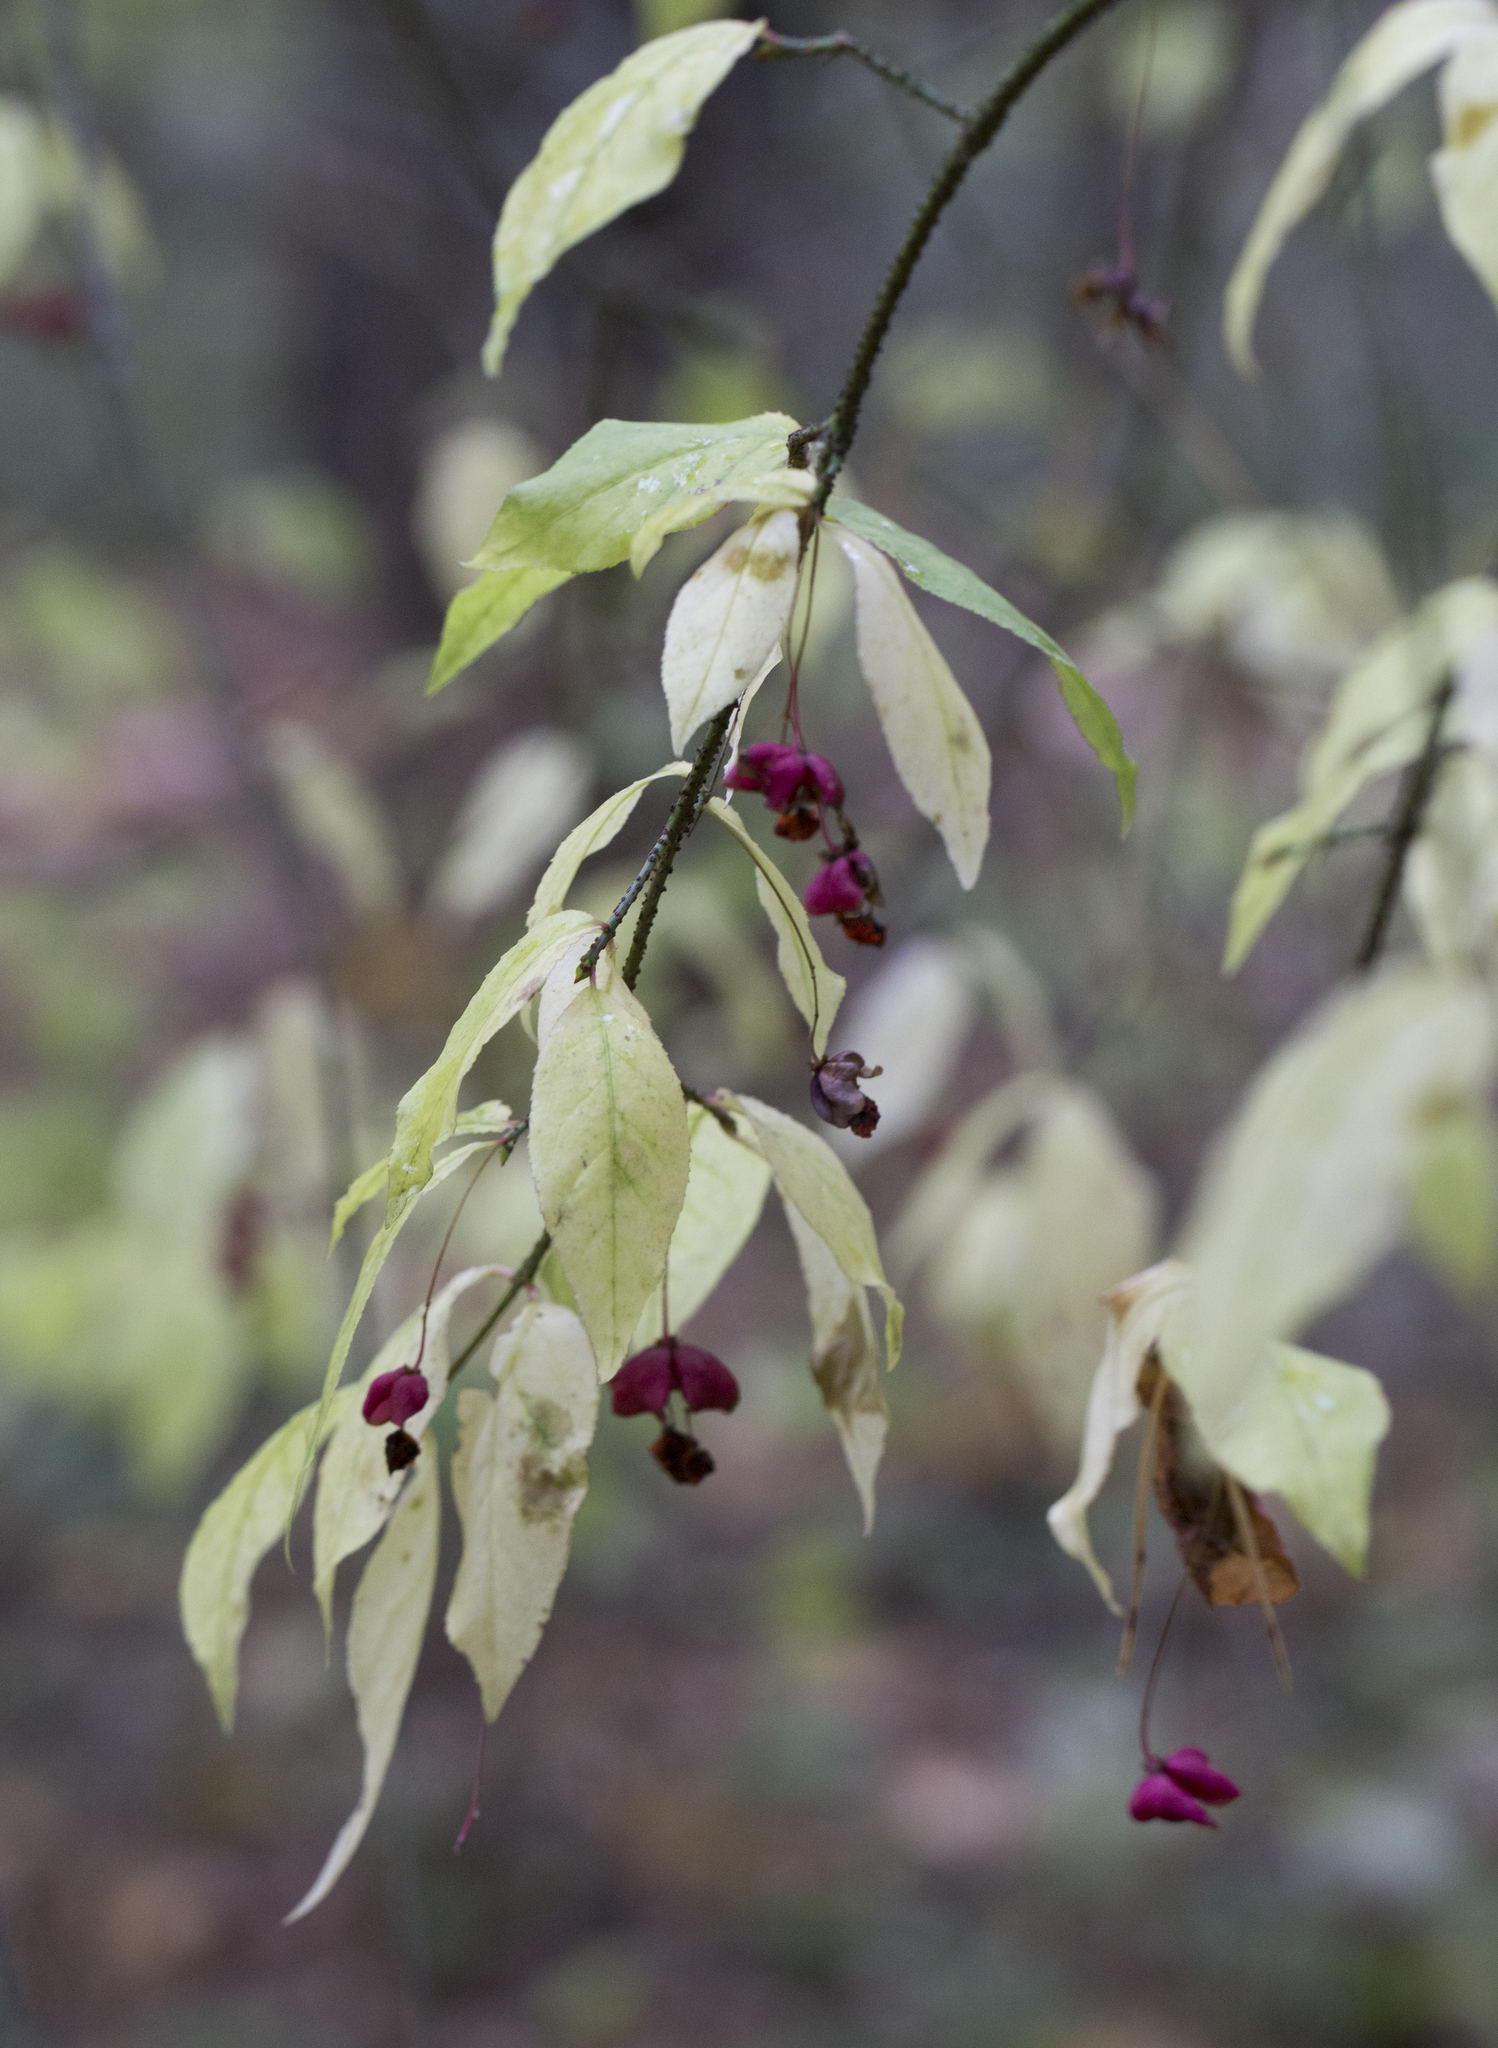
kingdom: Plantae
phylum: Tracheophyta
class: Magnoliopsida
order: Celastrales
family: Celastraceae
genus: Euonymus
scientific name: Euonymus verrucosus
